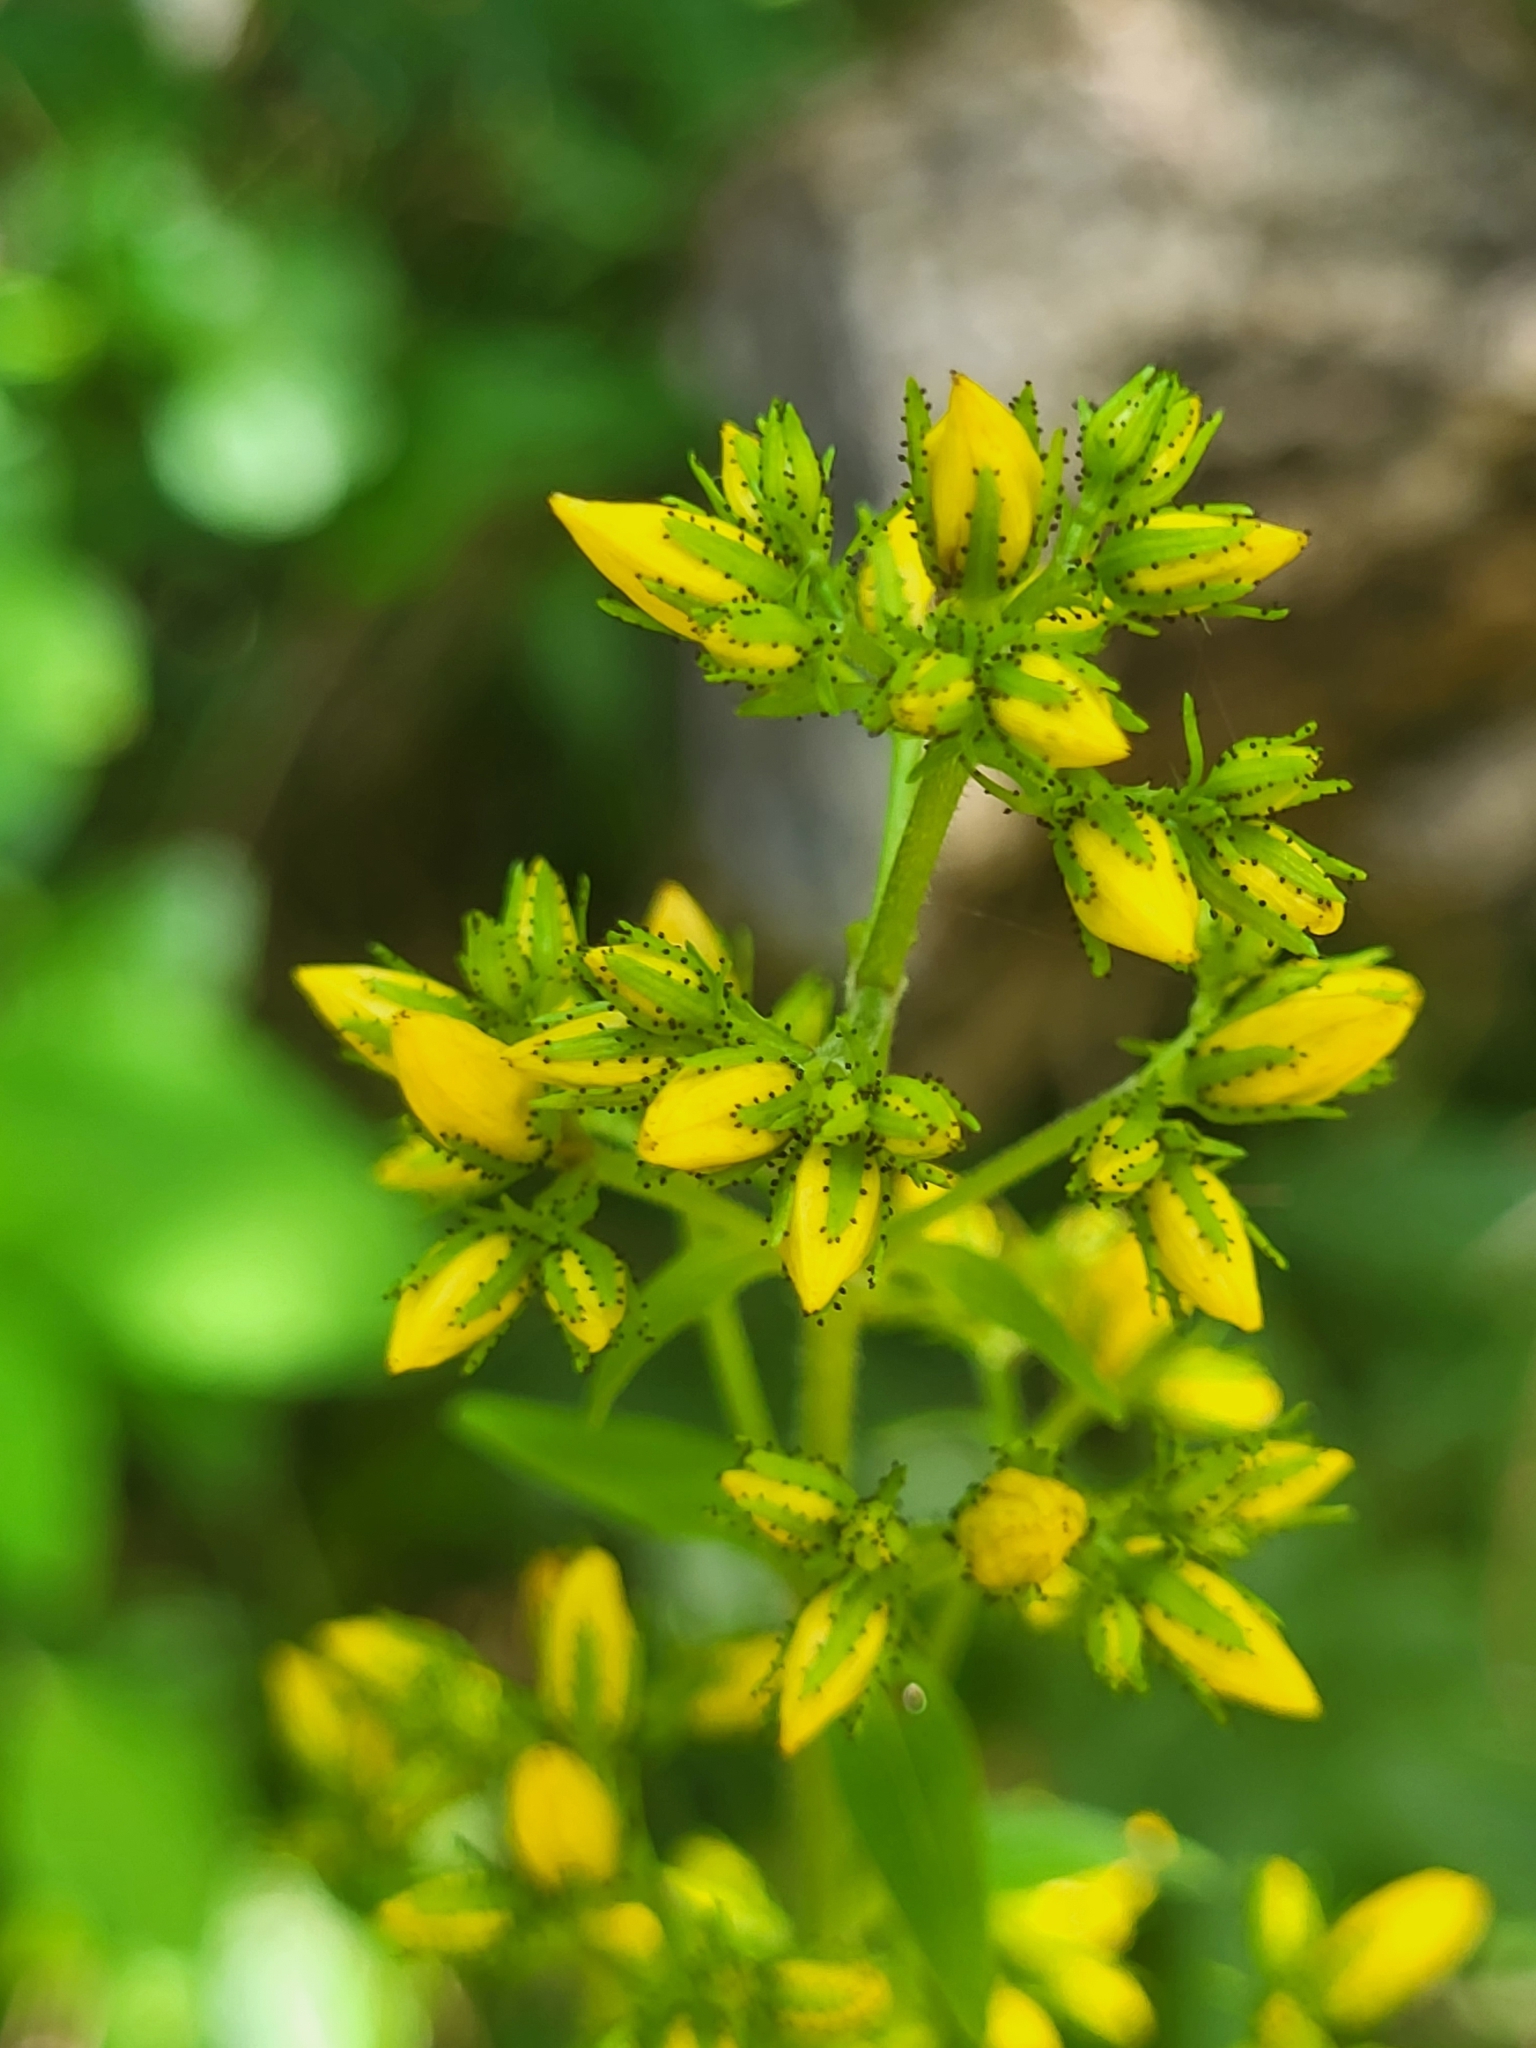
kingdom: Plantae
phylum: Tracheophyta
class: Magnoliopsida
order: Malpighiales
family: Hypericaceae
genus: Hypericum
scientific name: Hypericum hirsutum
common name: Hairy st. john's-wort
